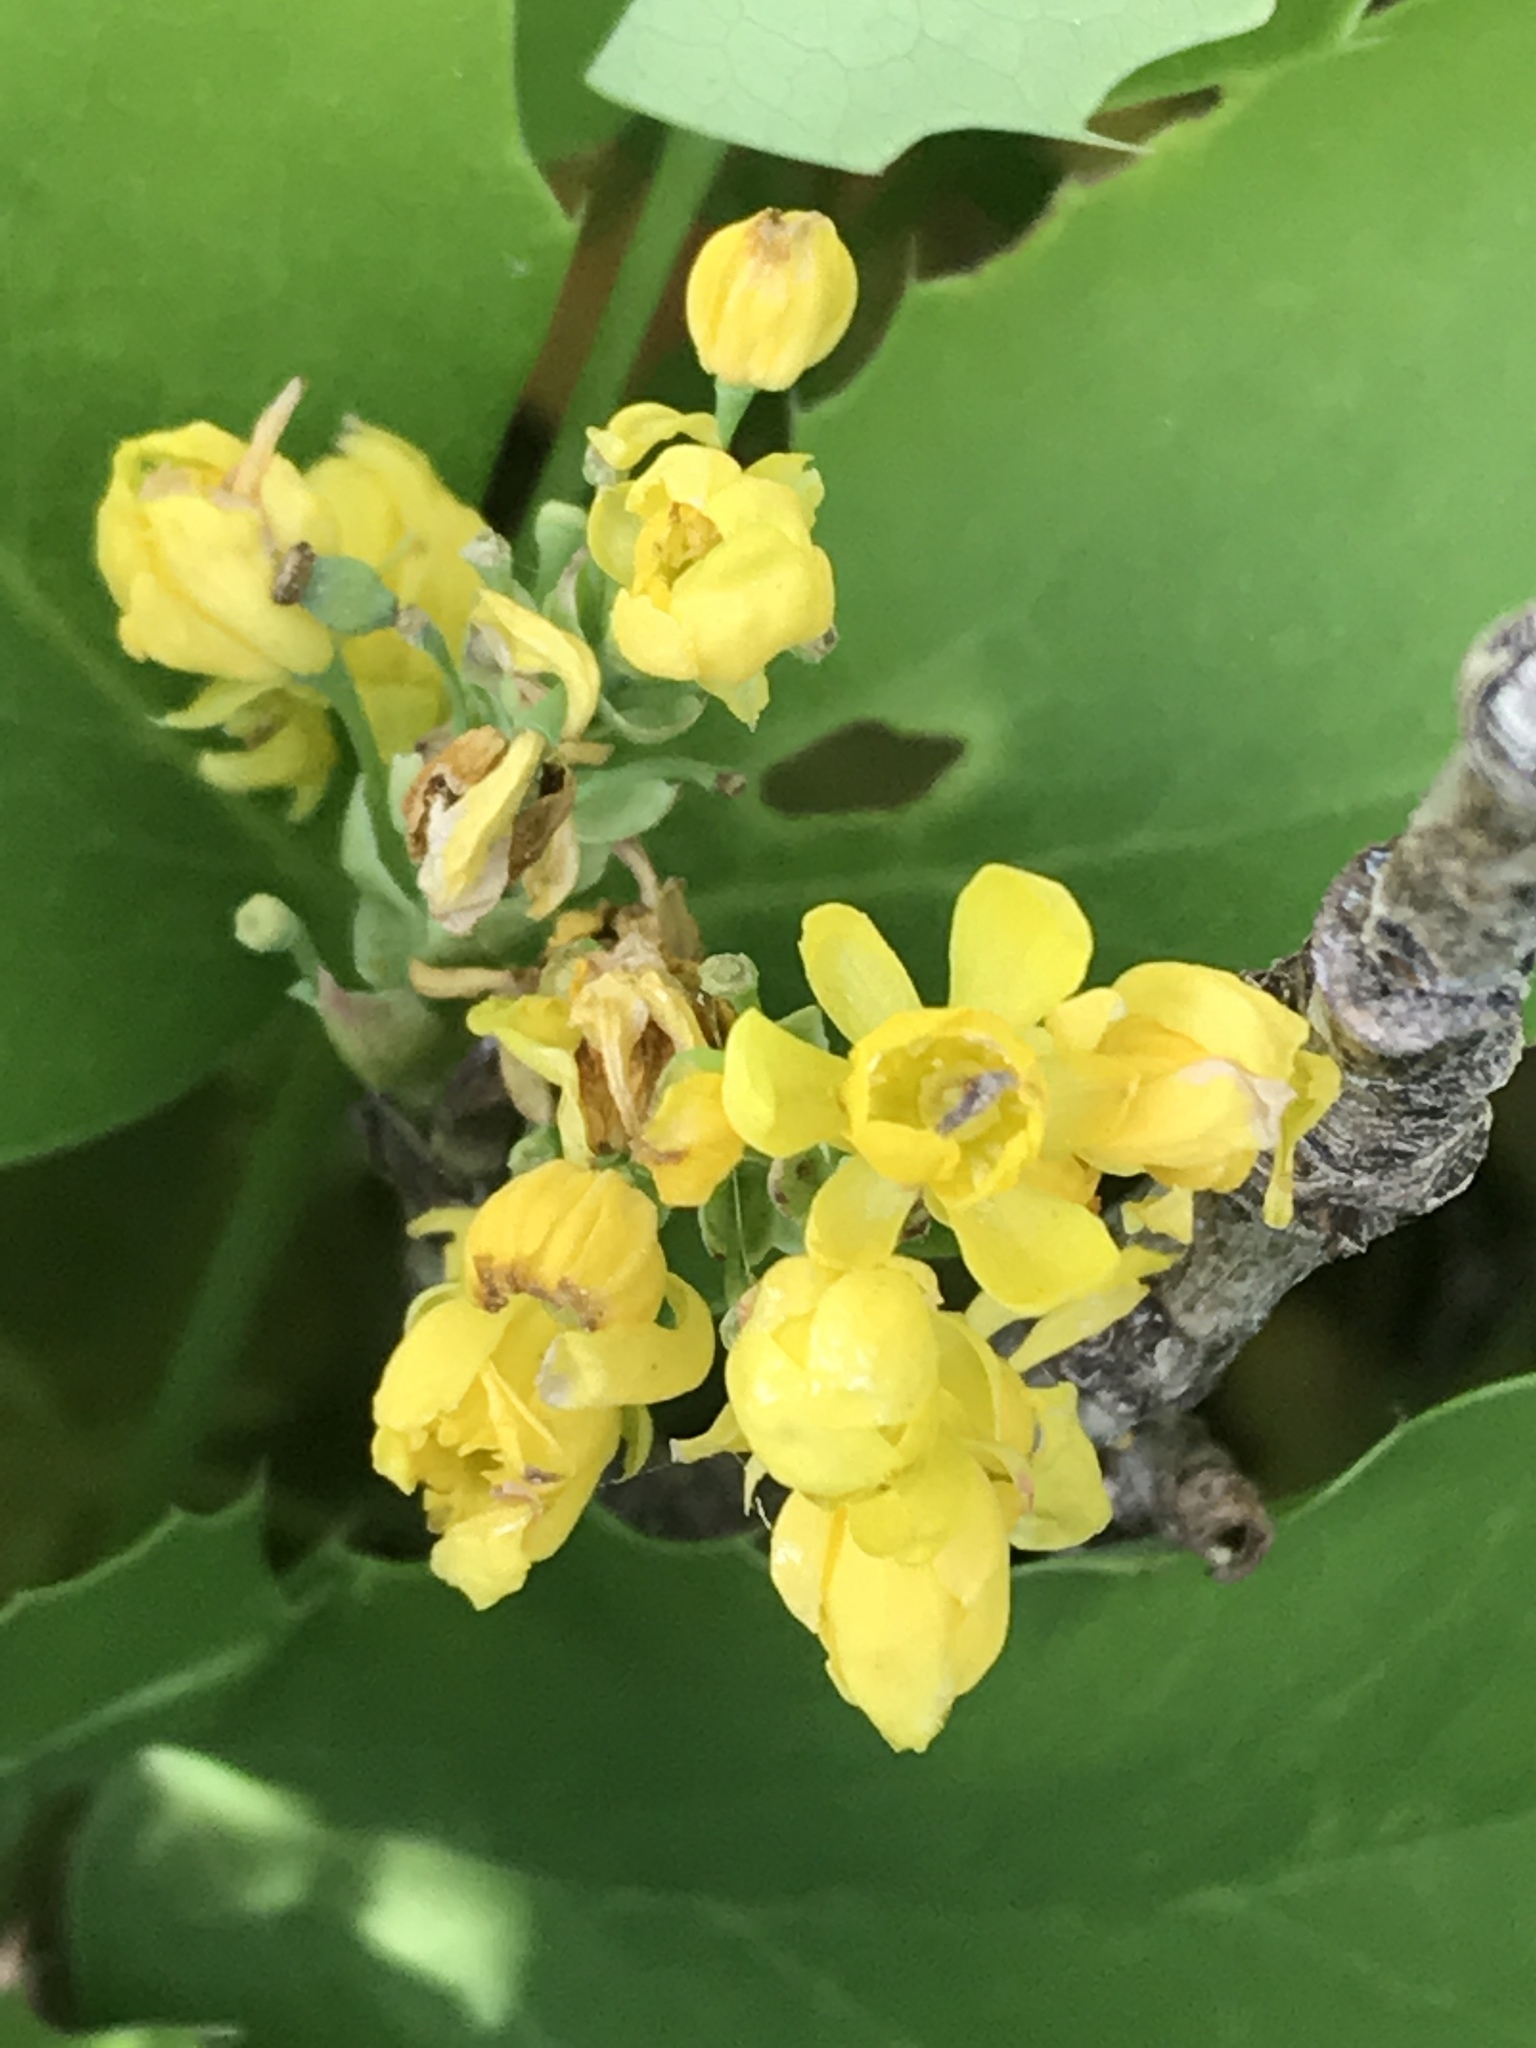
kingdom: Plantae
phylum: Tracheophyta
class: Magnoliopsida
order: Ranunculales
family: Berberidaceae
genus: Mahonia
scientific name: Mahonia repens
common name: Creeping oregon-grape
